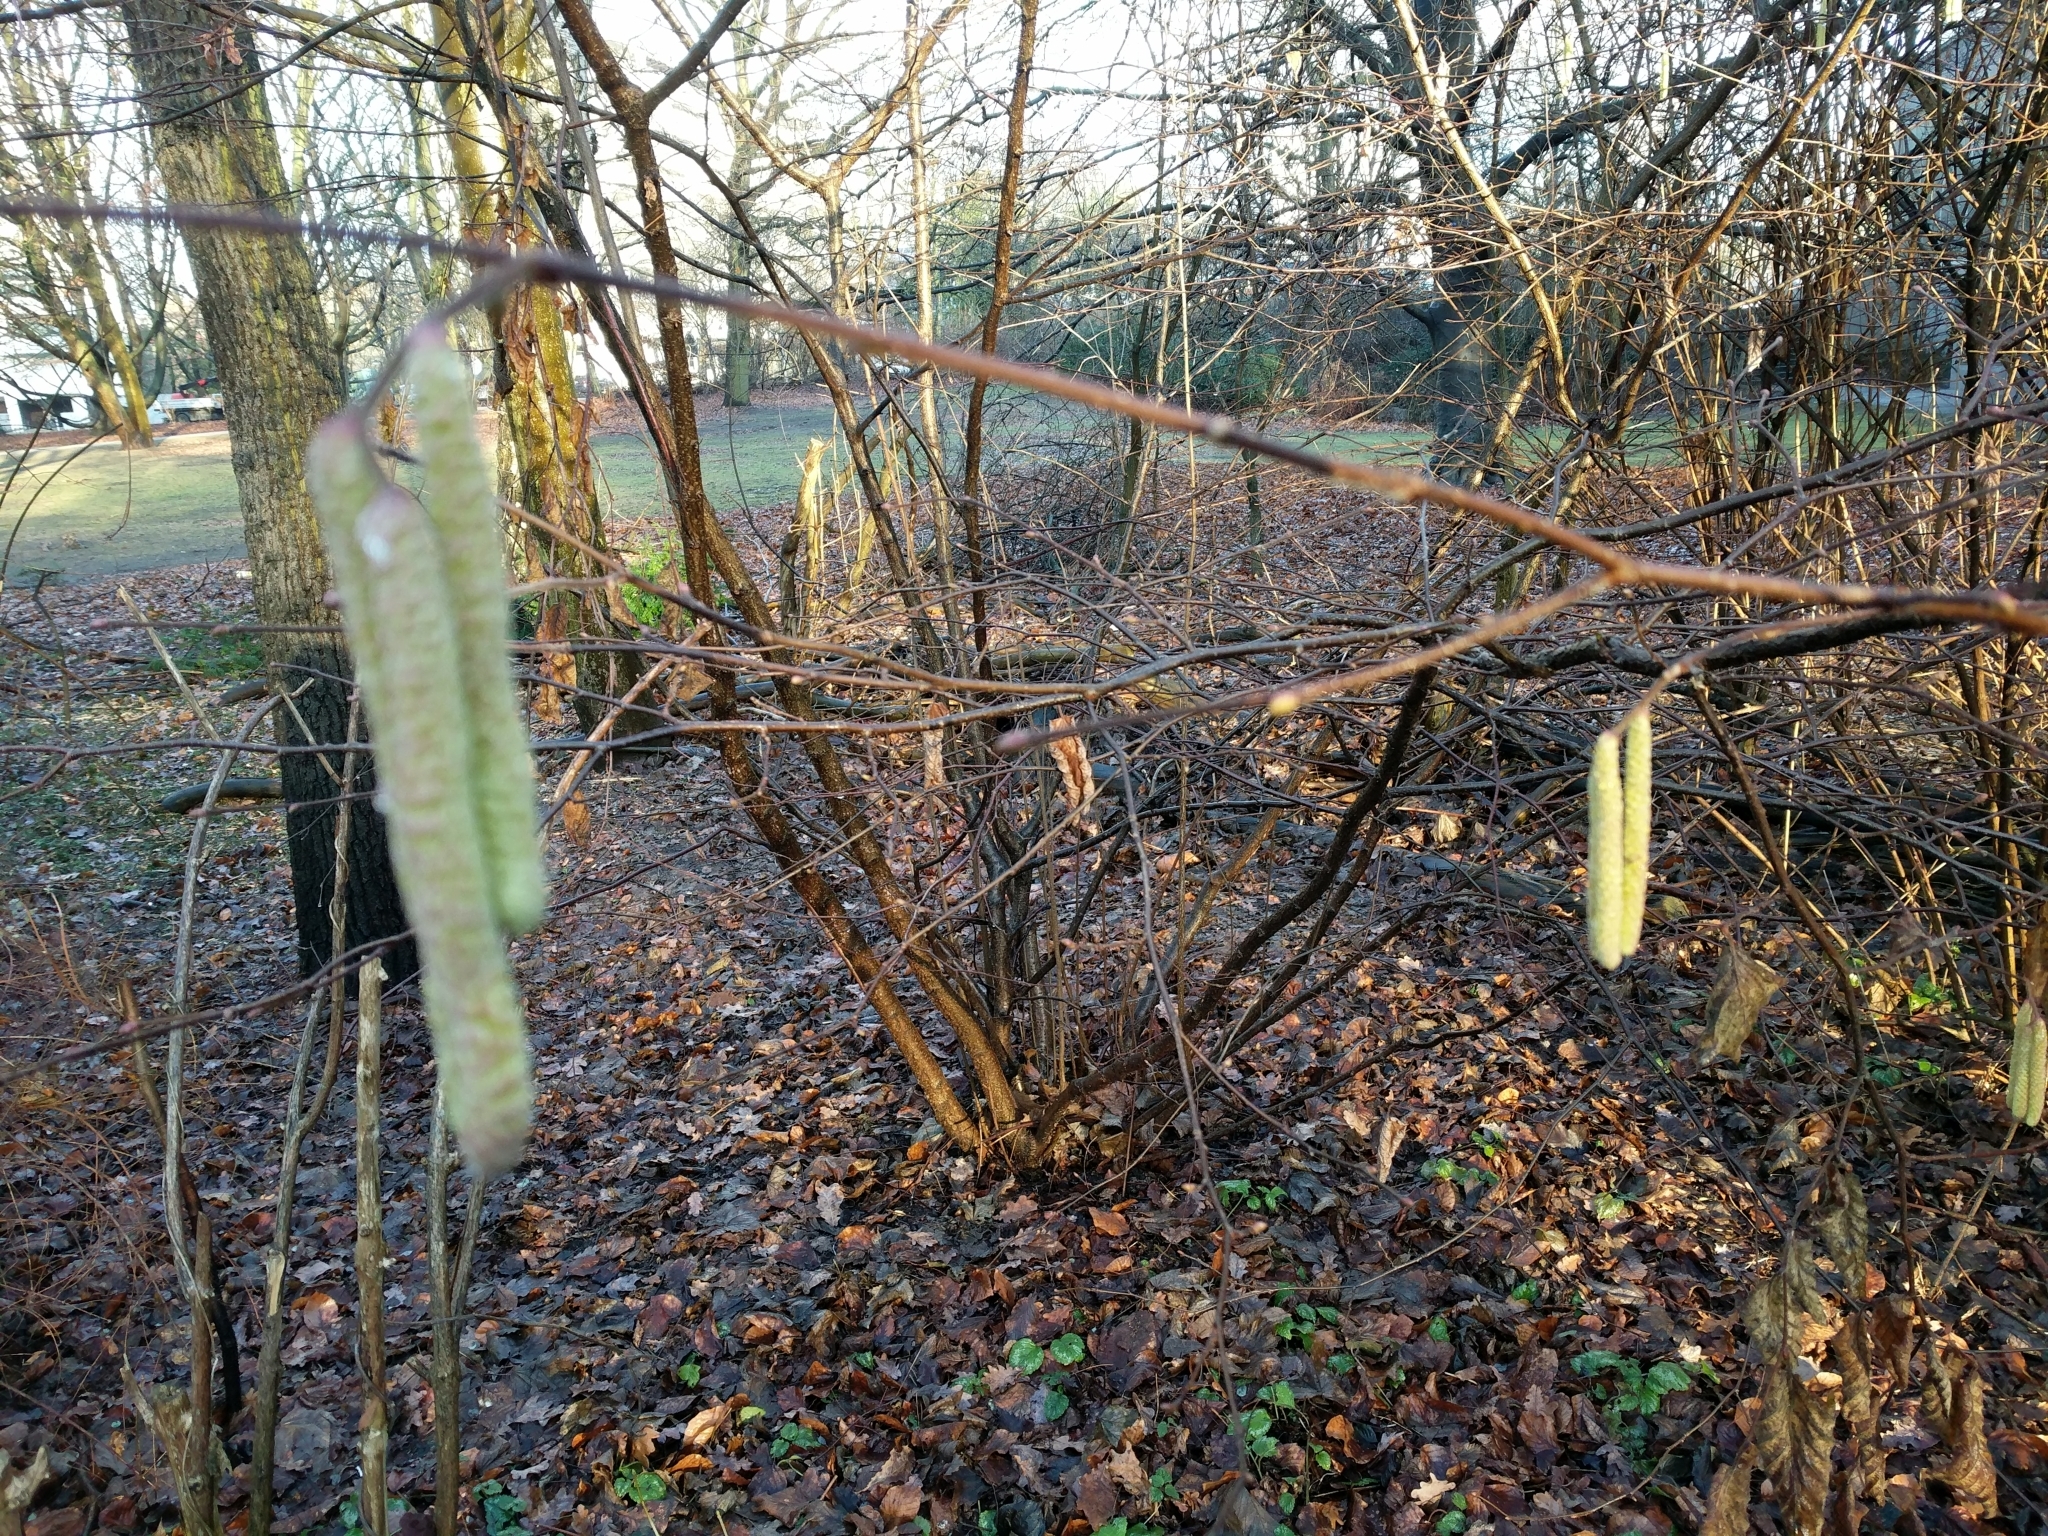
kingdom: Plantae
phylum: Tracheophyta
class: Magnoliopsida
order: Fagales
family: Betulaceae
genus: Corylus
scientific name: Corylus avellana
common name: European hazel
